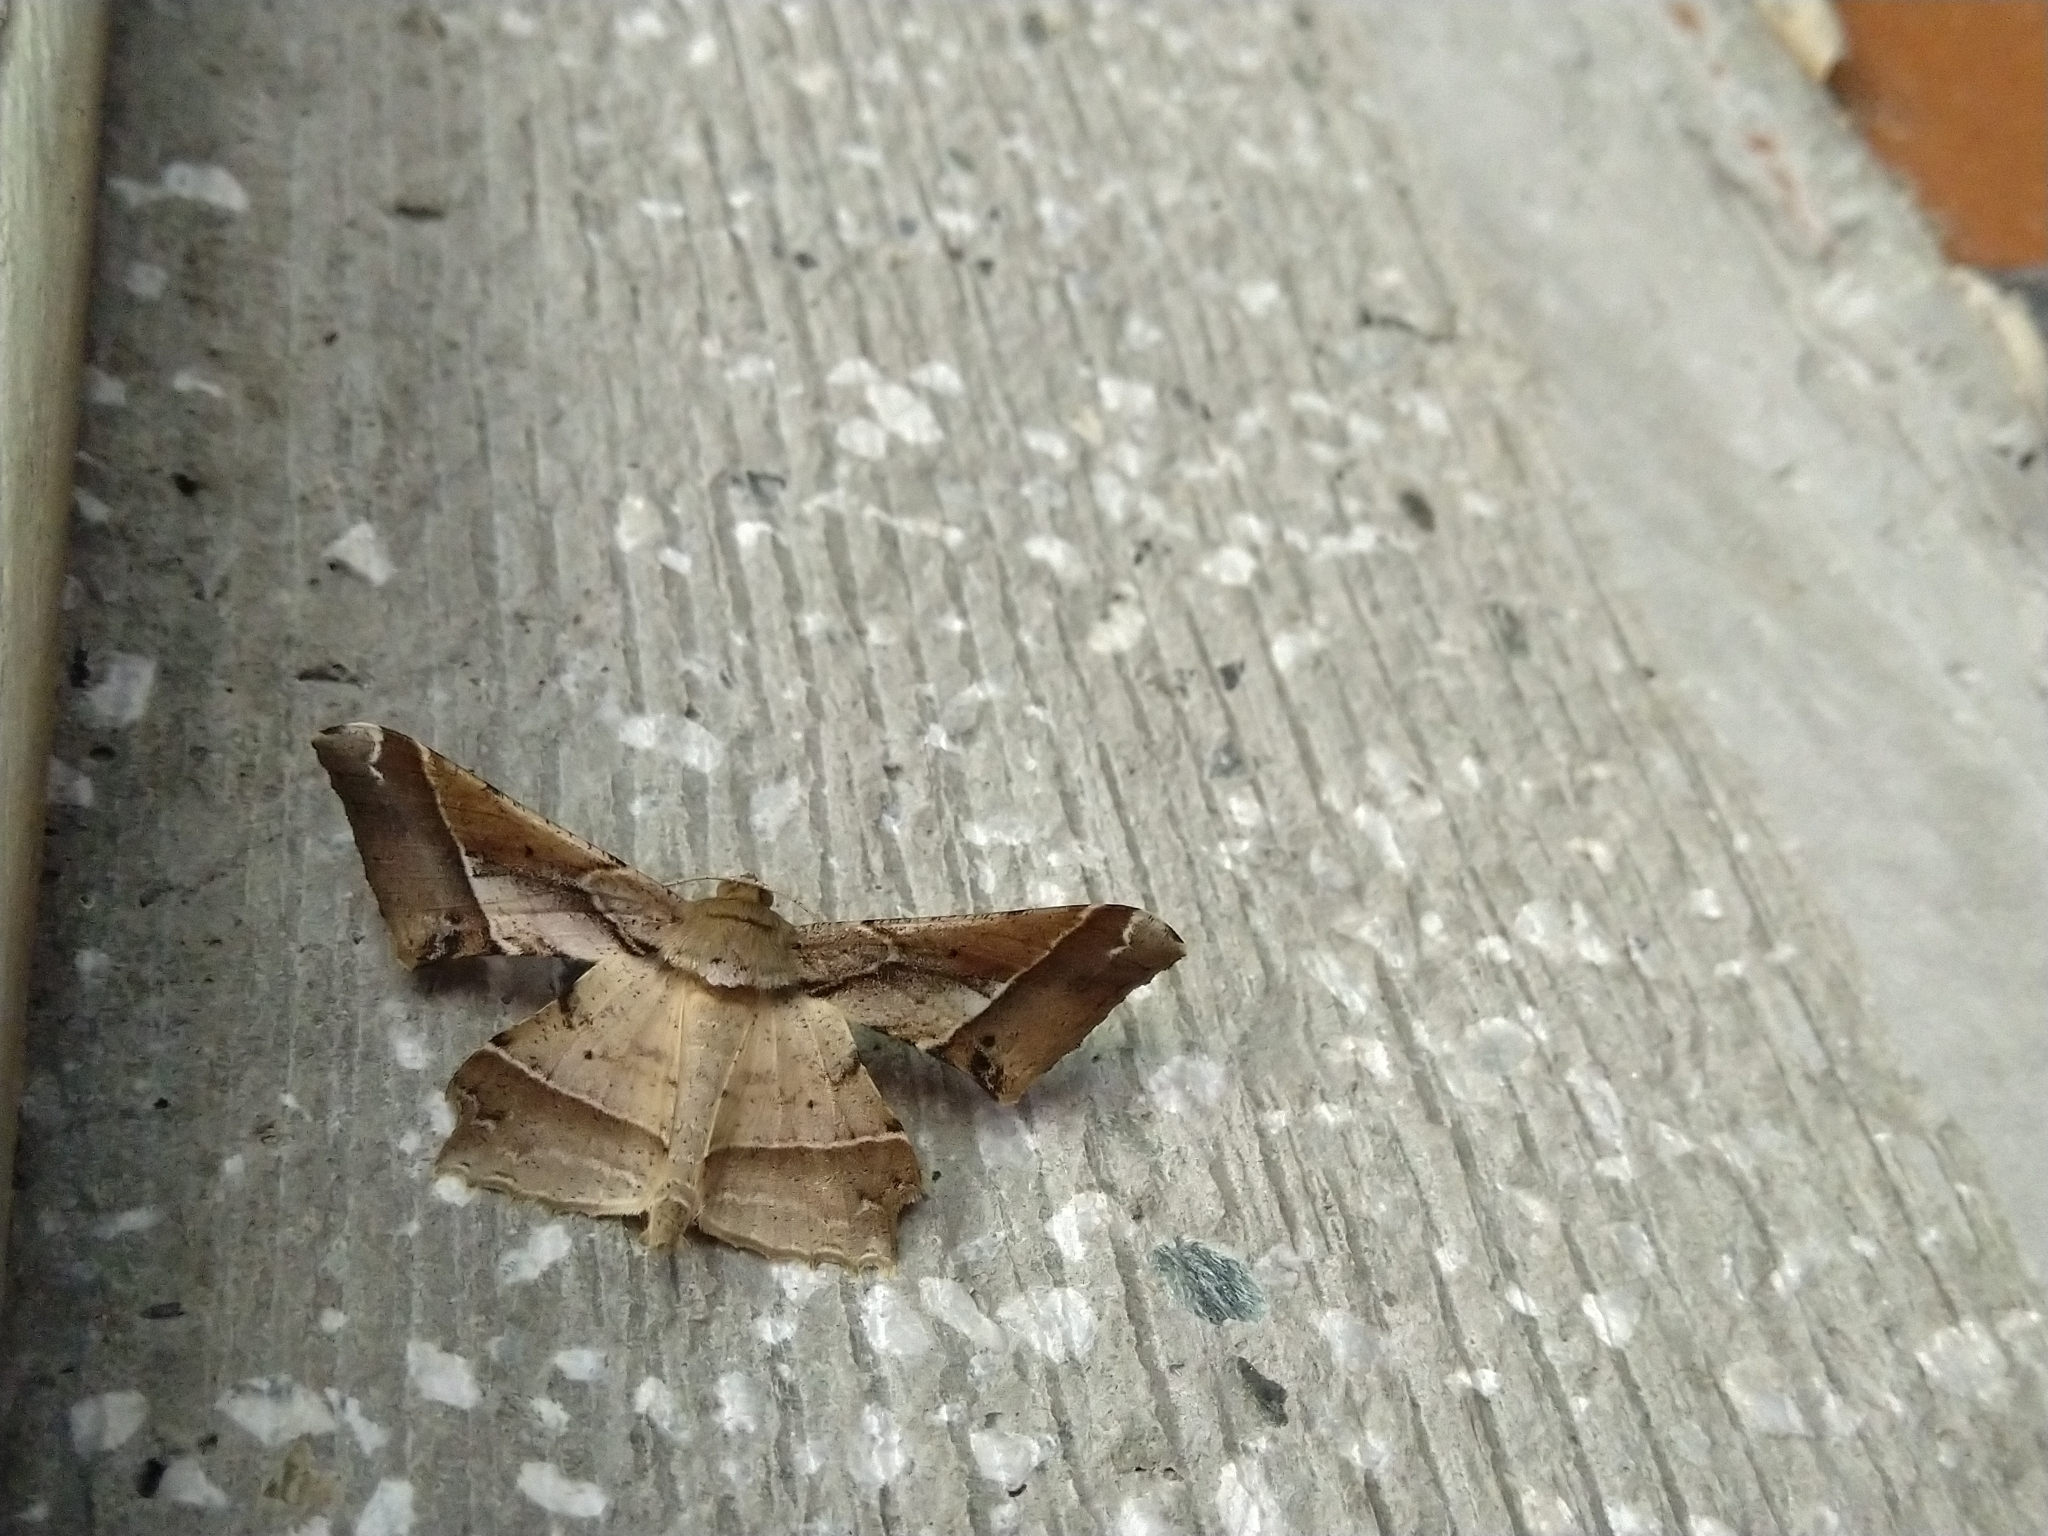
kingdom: Animalia
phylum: Arthropoda
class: Insecta
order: Lepidoptera
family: Geometridae
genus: Krananda
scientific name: Krananda latimarginaria
